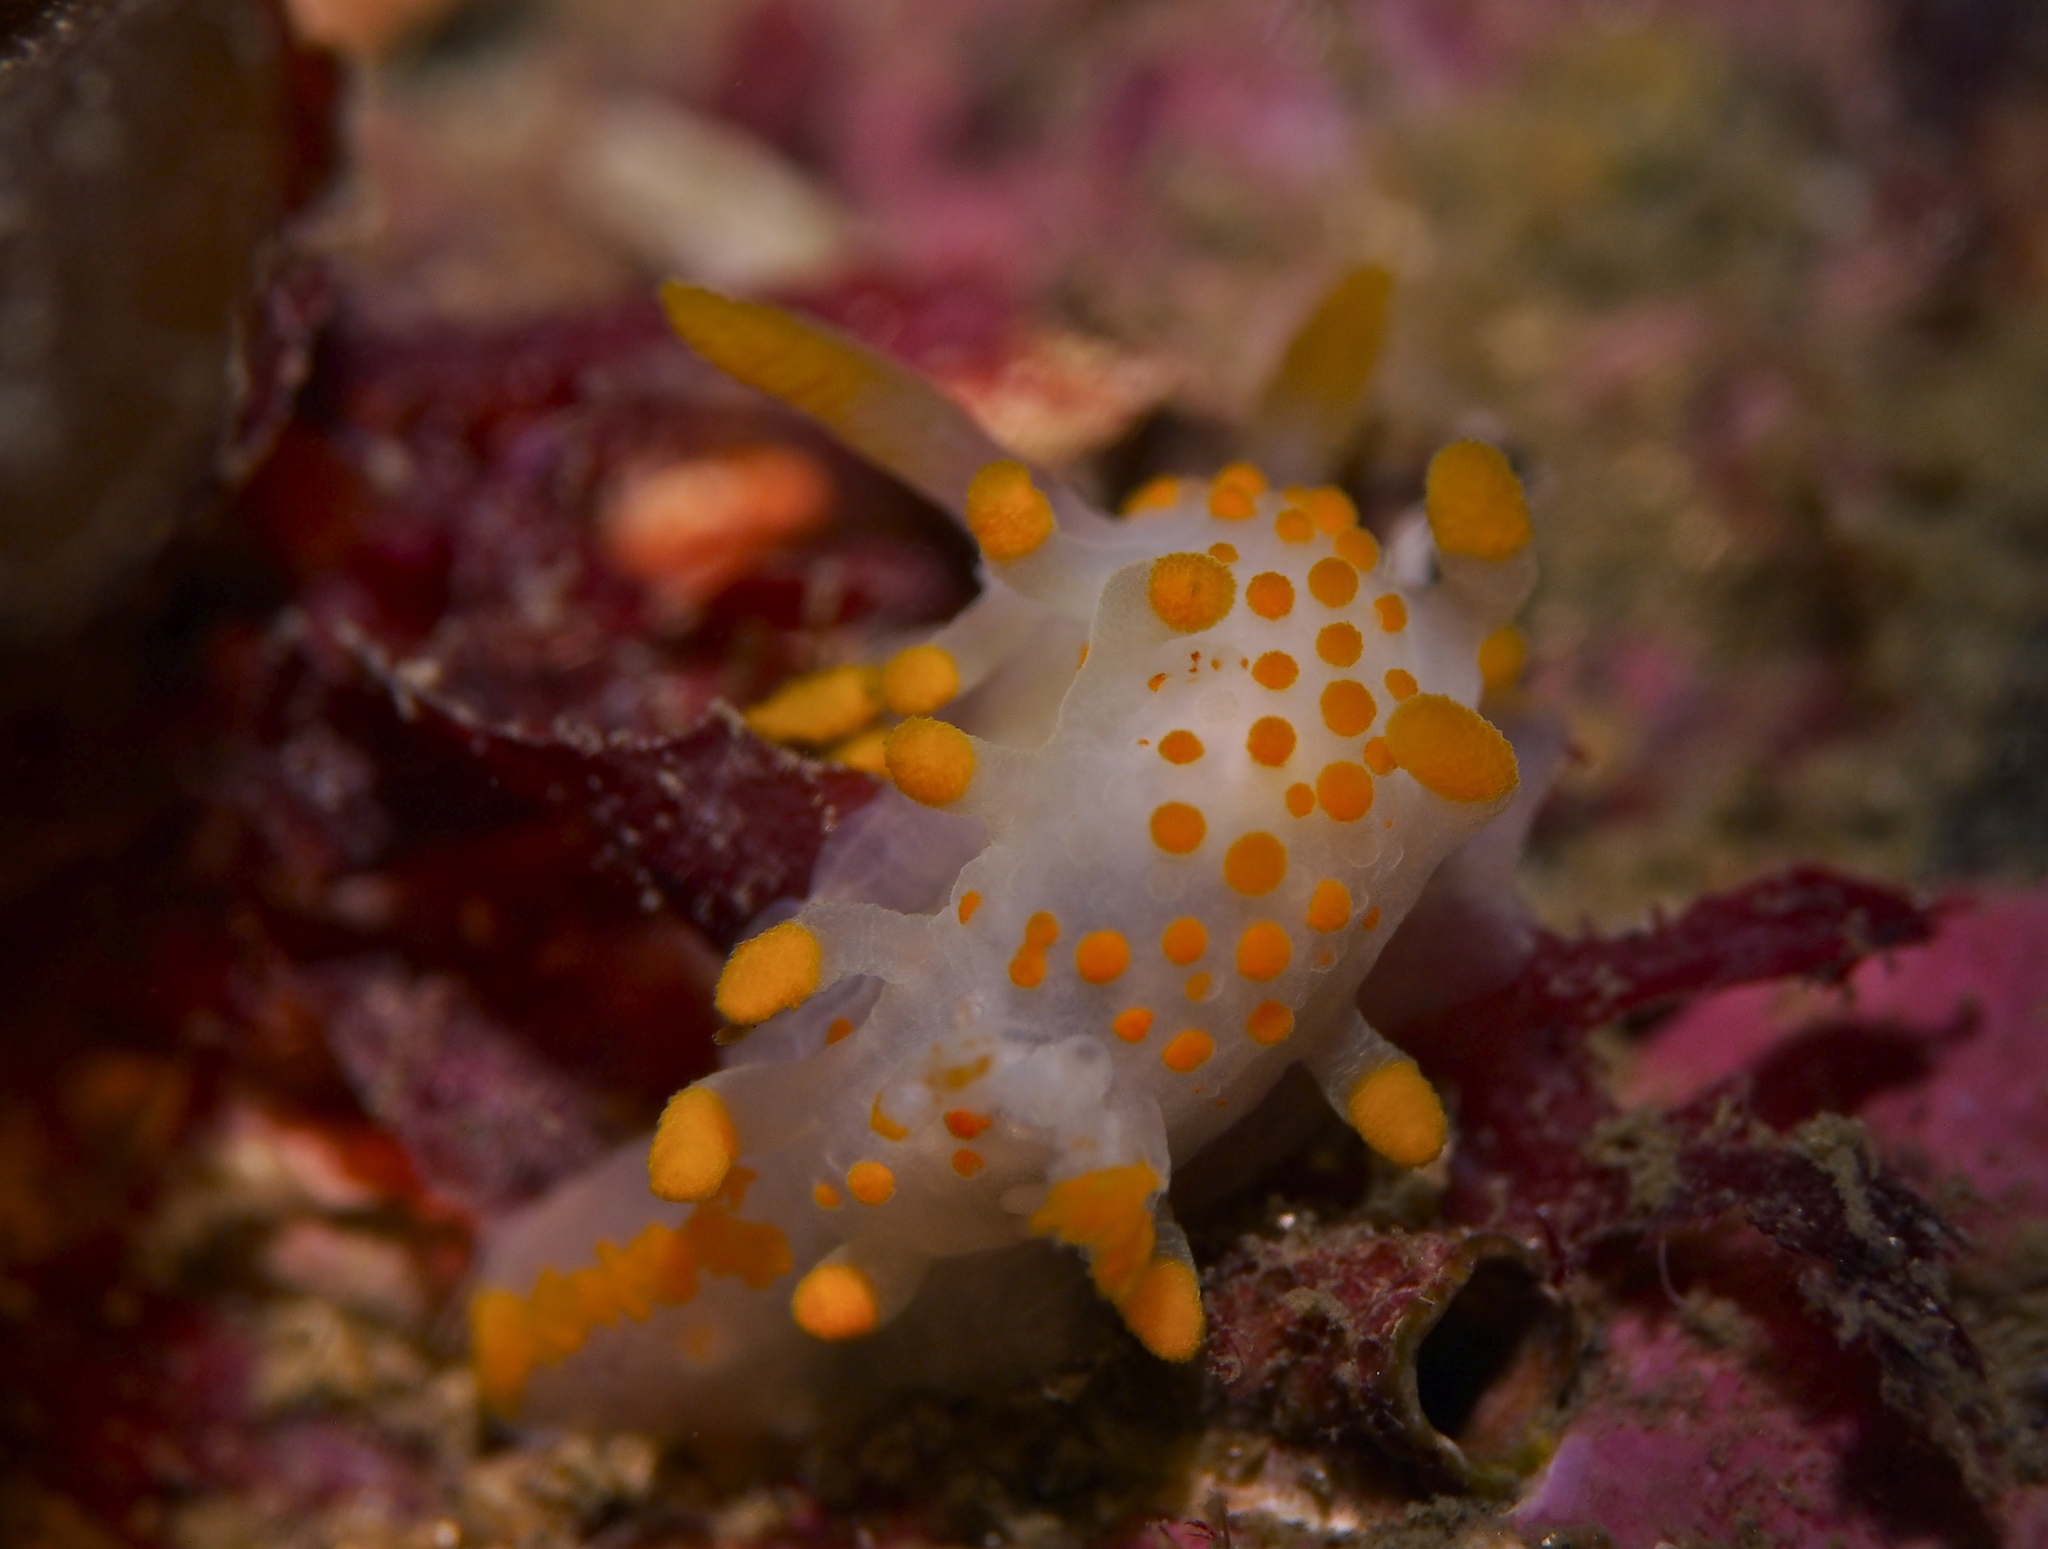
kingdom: Animalia
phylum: Mollusca
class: Gastropoda
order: Nudibranchia
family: Polyceridae
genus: Limacia
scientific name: Limacia clavigera
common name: Orange-clubbed sea slug
